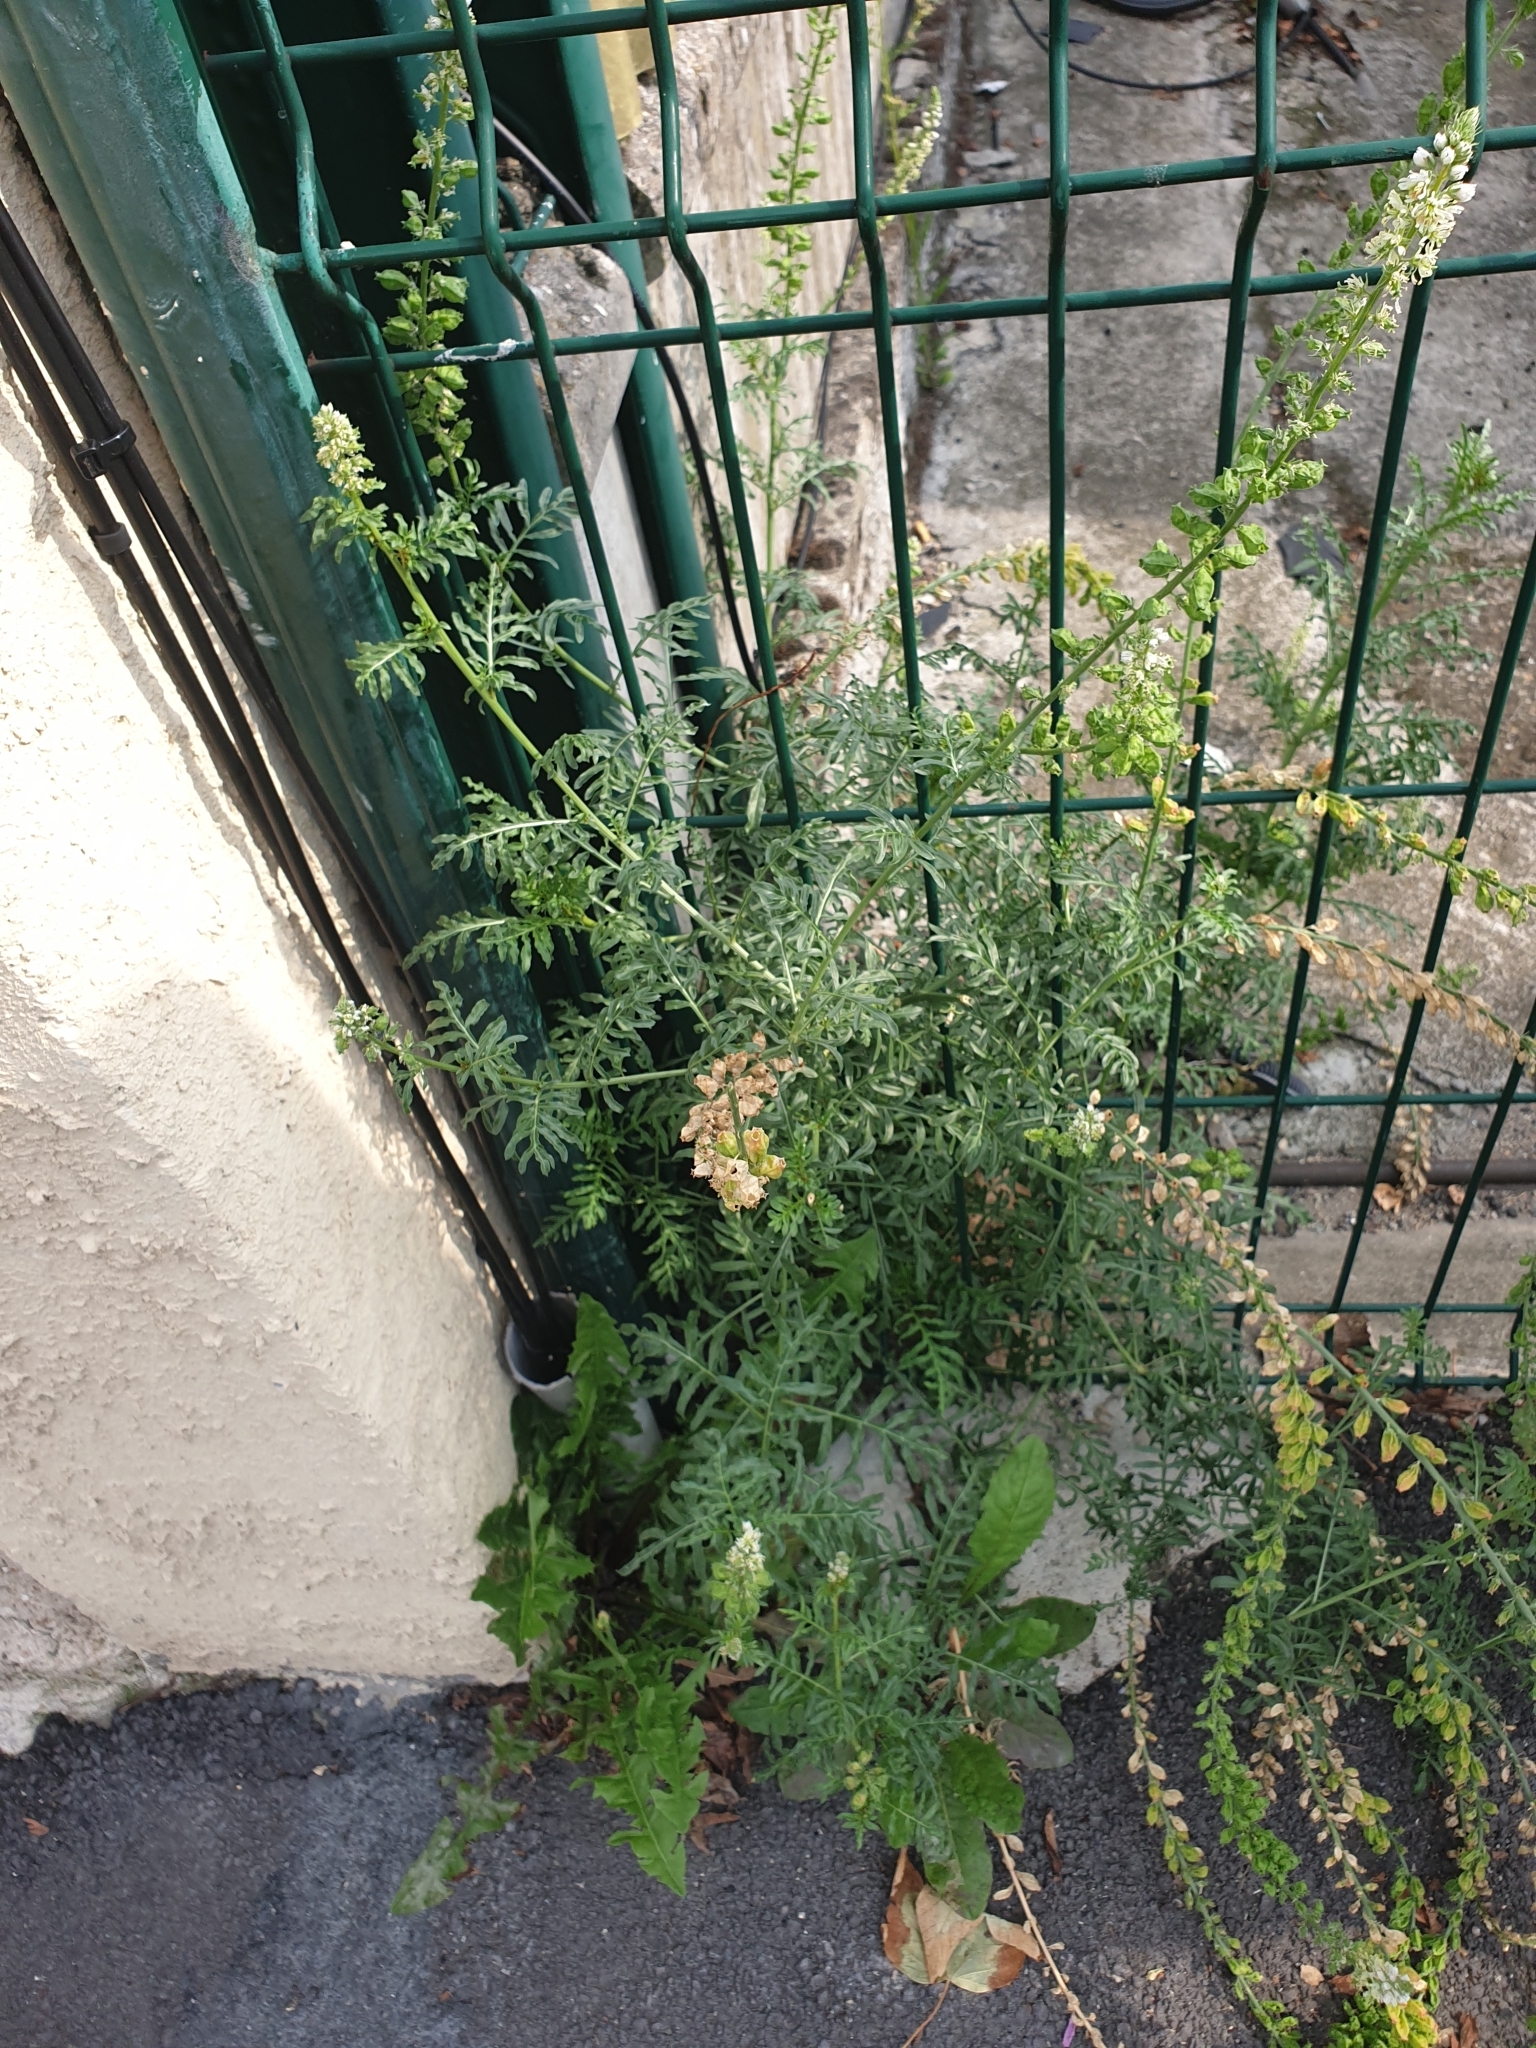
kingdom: Plantae
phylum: Tracheophyta
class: Magnoliopsida
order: Brassicales
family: Resedaceae
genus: Reseda
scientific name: Reseda lutea
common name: Wild mignonette
